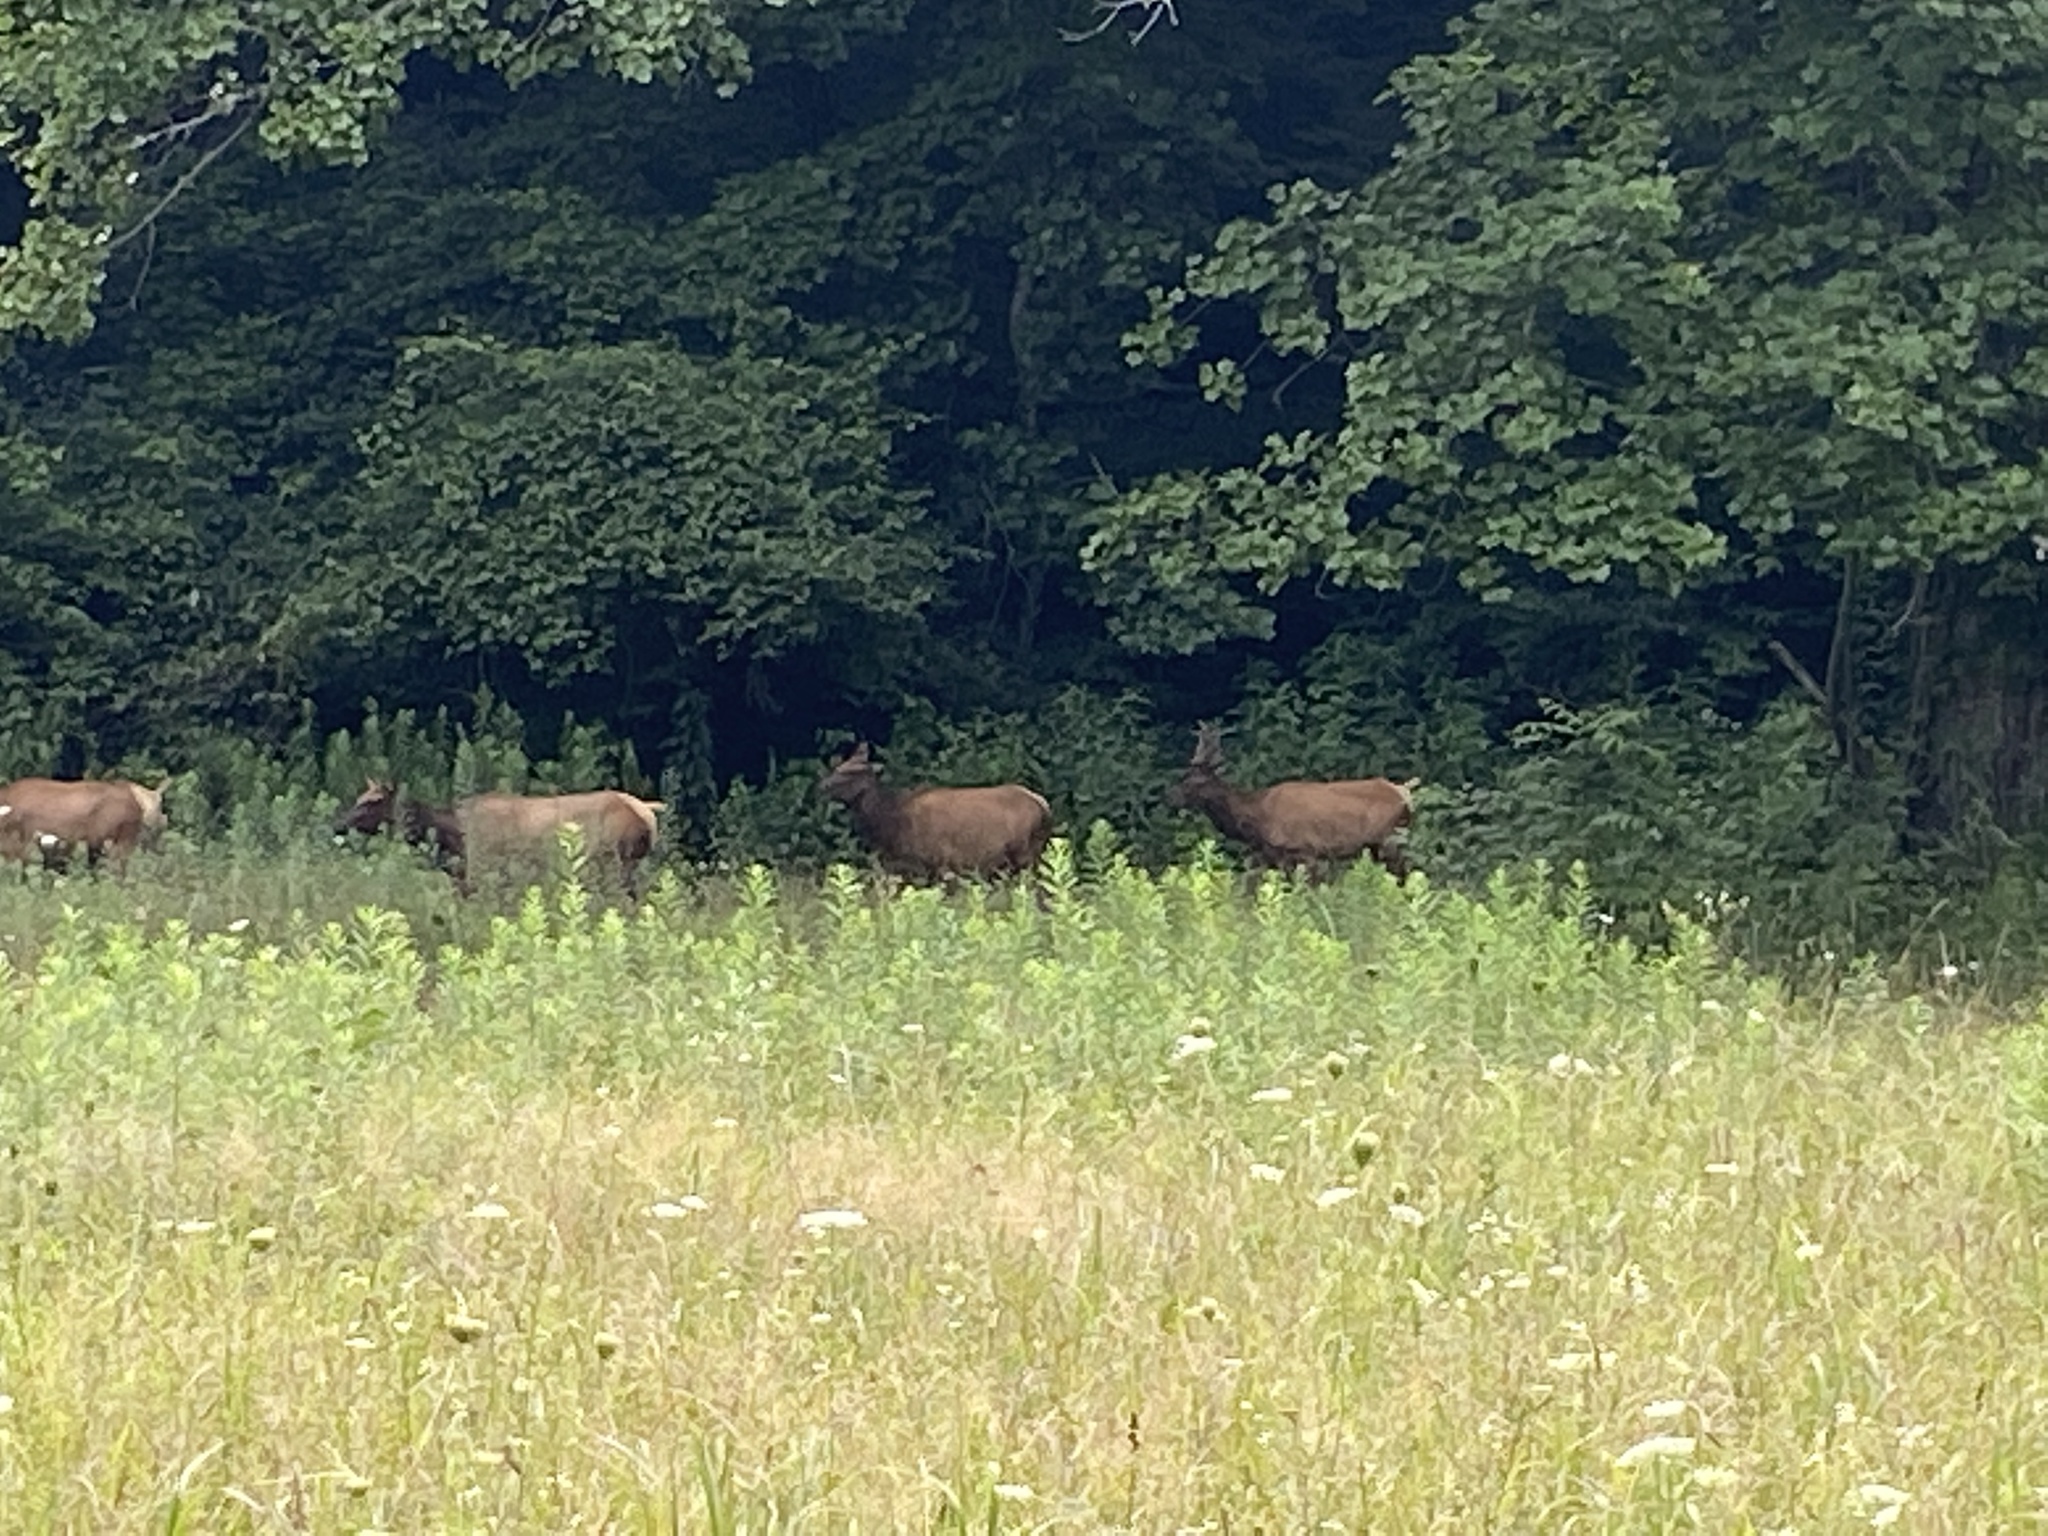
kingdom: Animalia
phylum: Chordata
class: Mammalia
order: Artiodactyla
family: Cervidae
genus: Cervus
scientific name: Cervus elaphus
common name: Red deer
